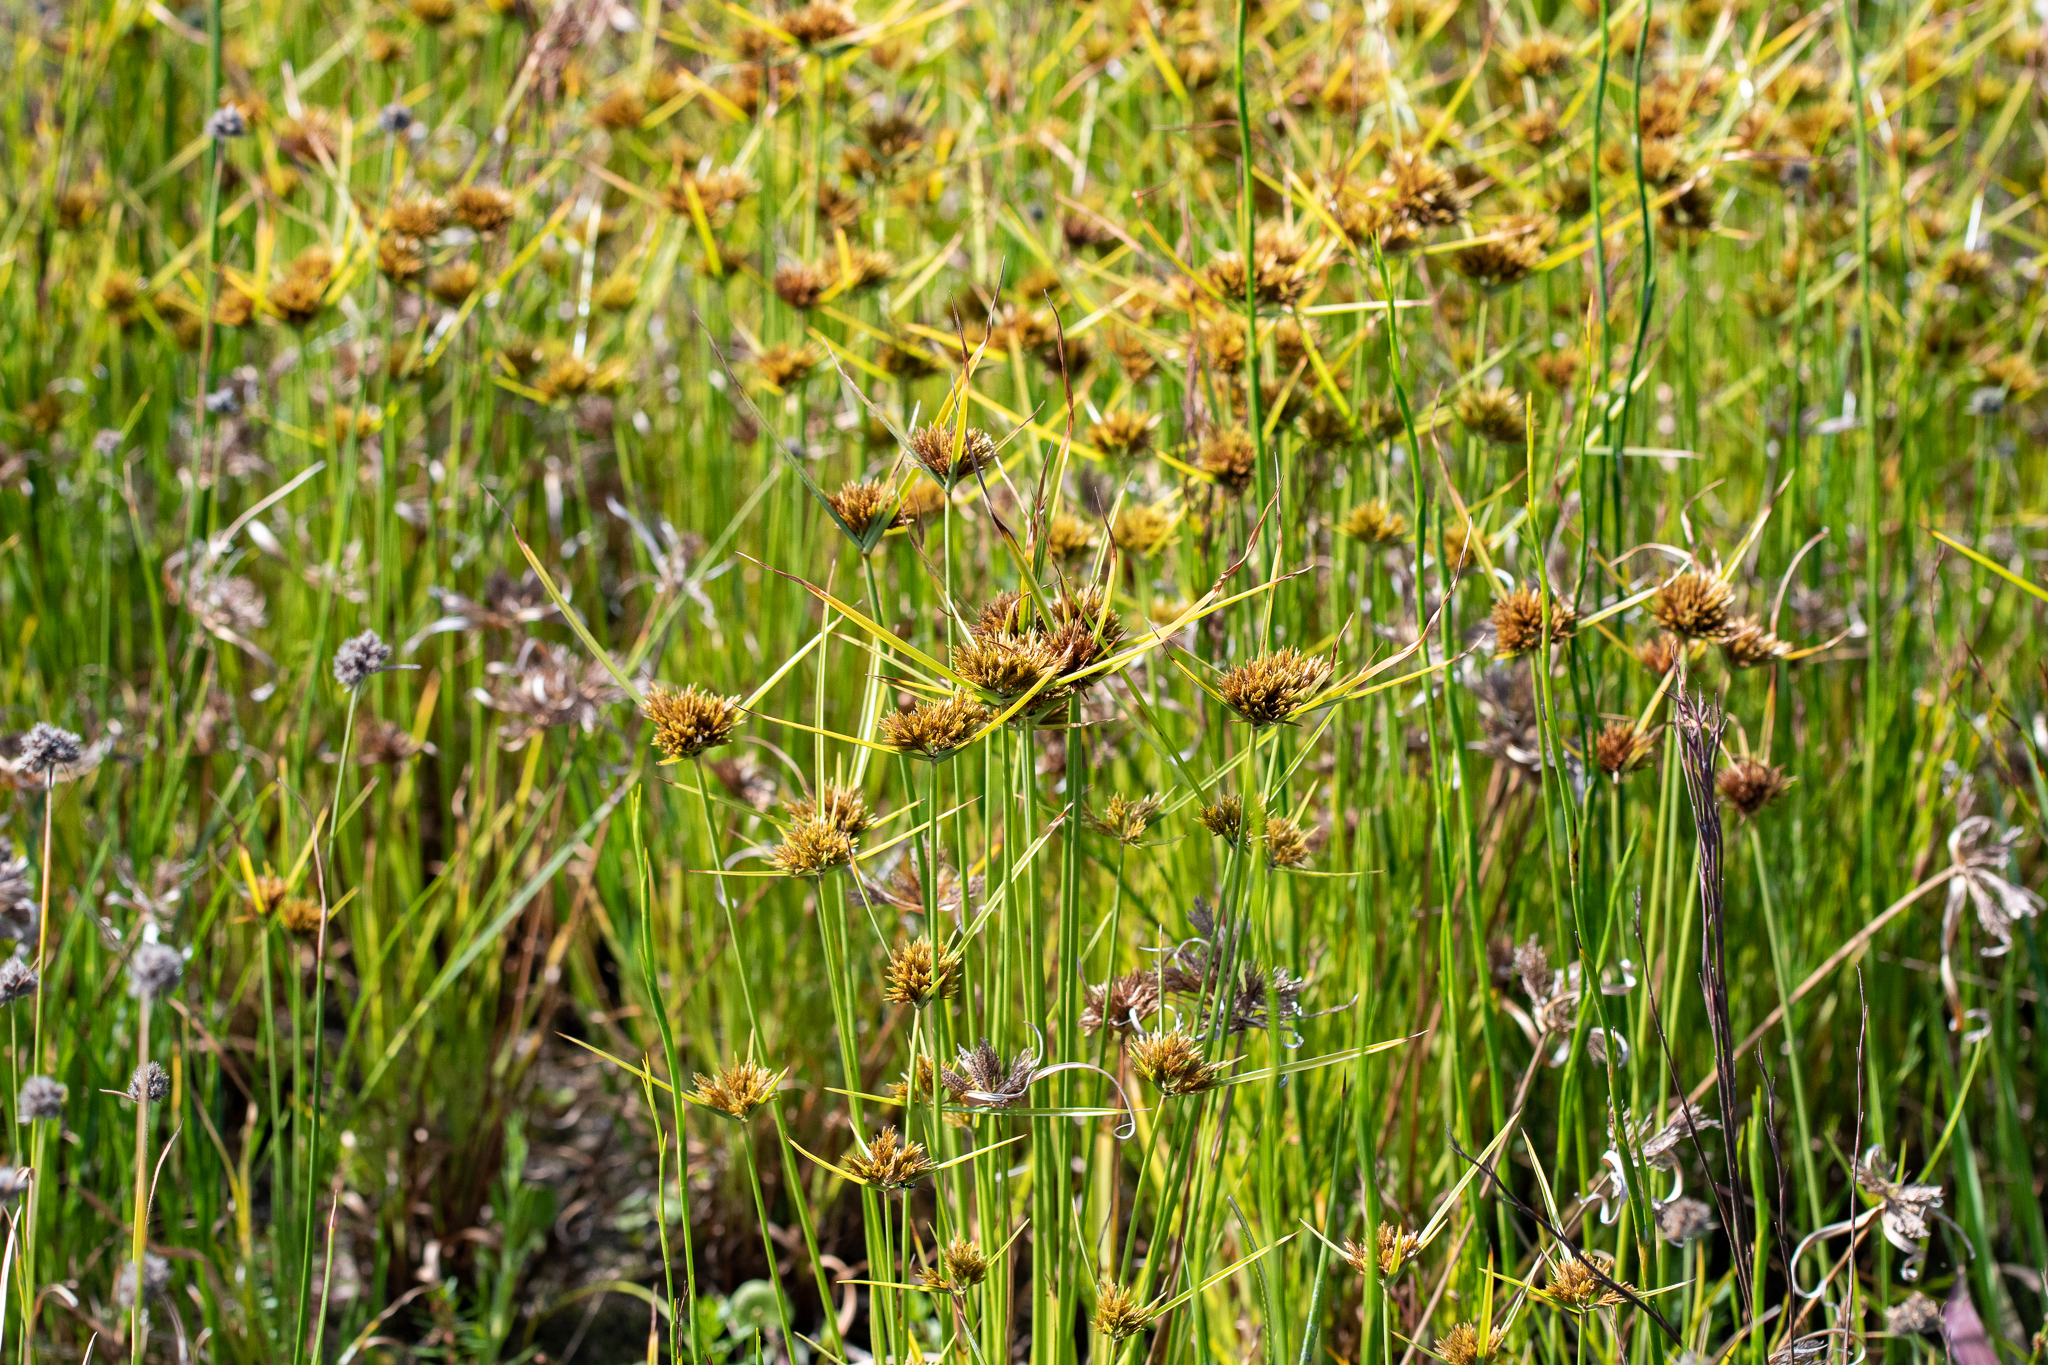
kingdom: Plantae
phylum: Tracheophyta
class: Liliopsida
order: Poales
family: Cyperaceae
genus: Cyperus
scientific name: Cyperus polystachyos
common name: Bunchy flat sedge
